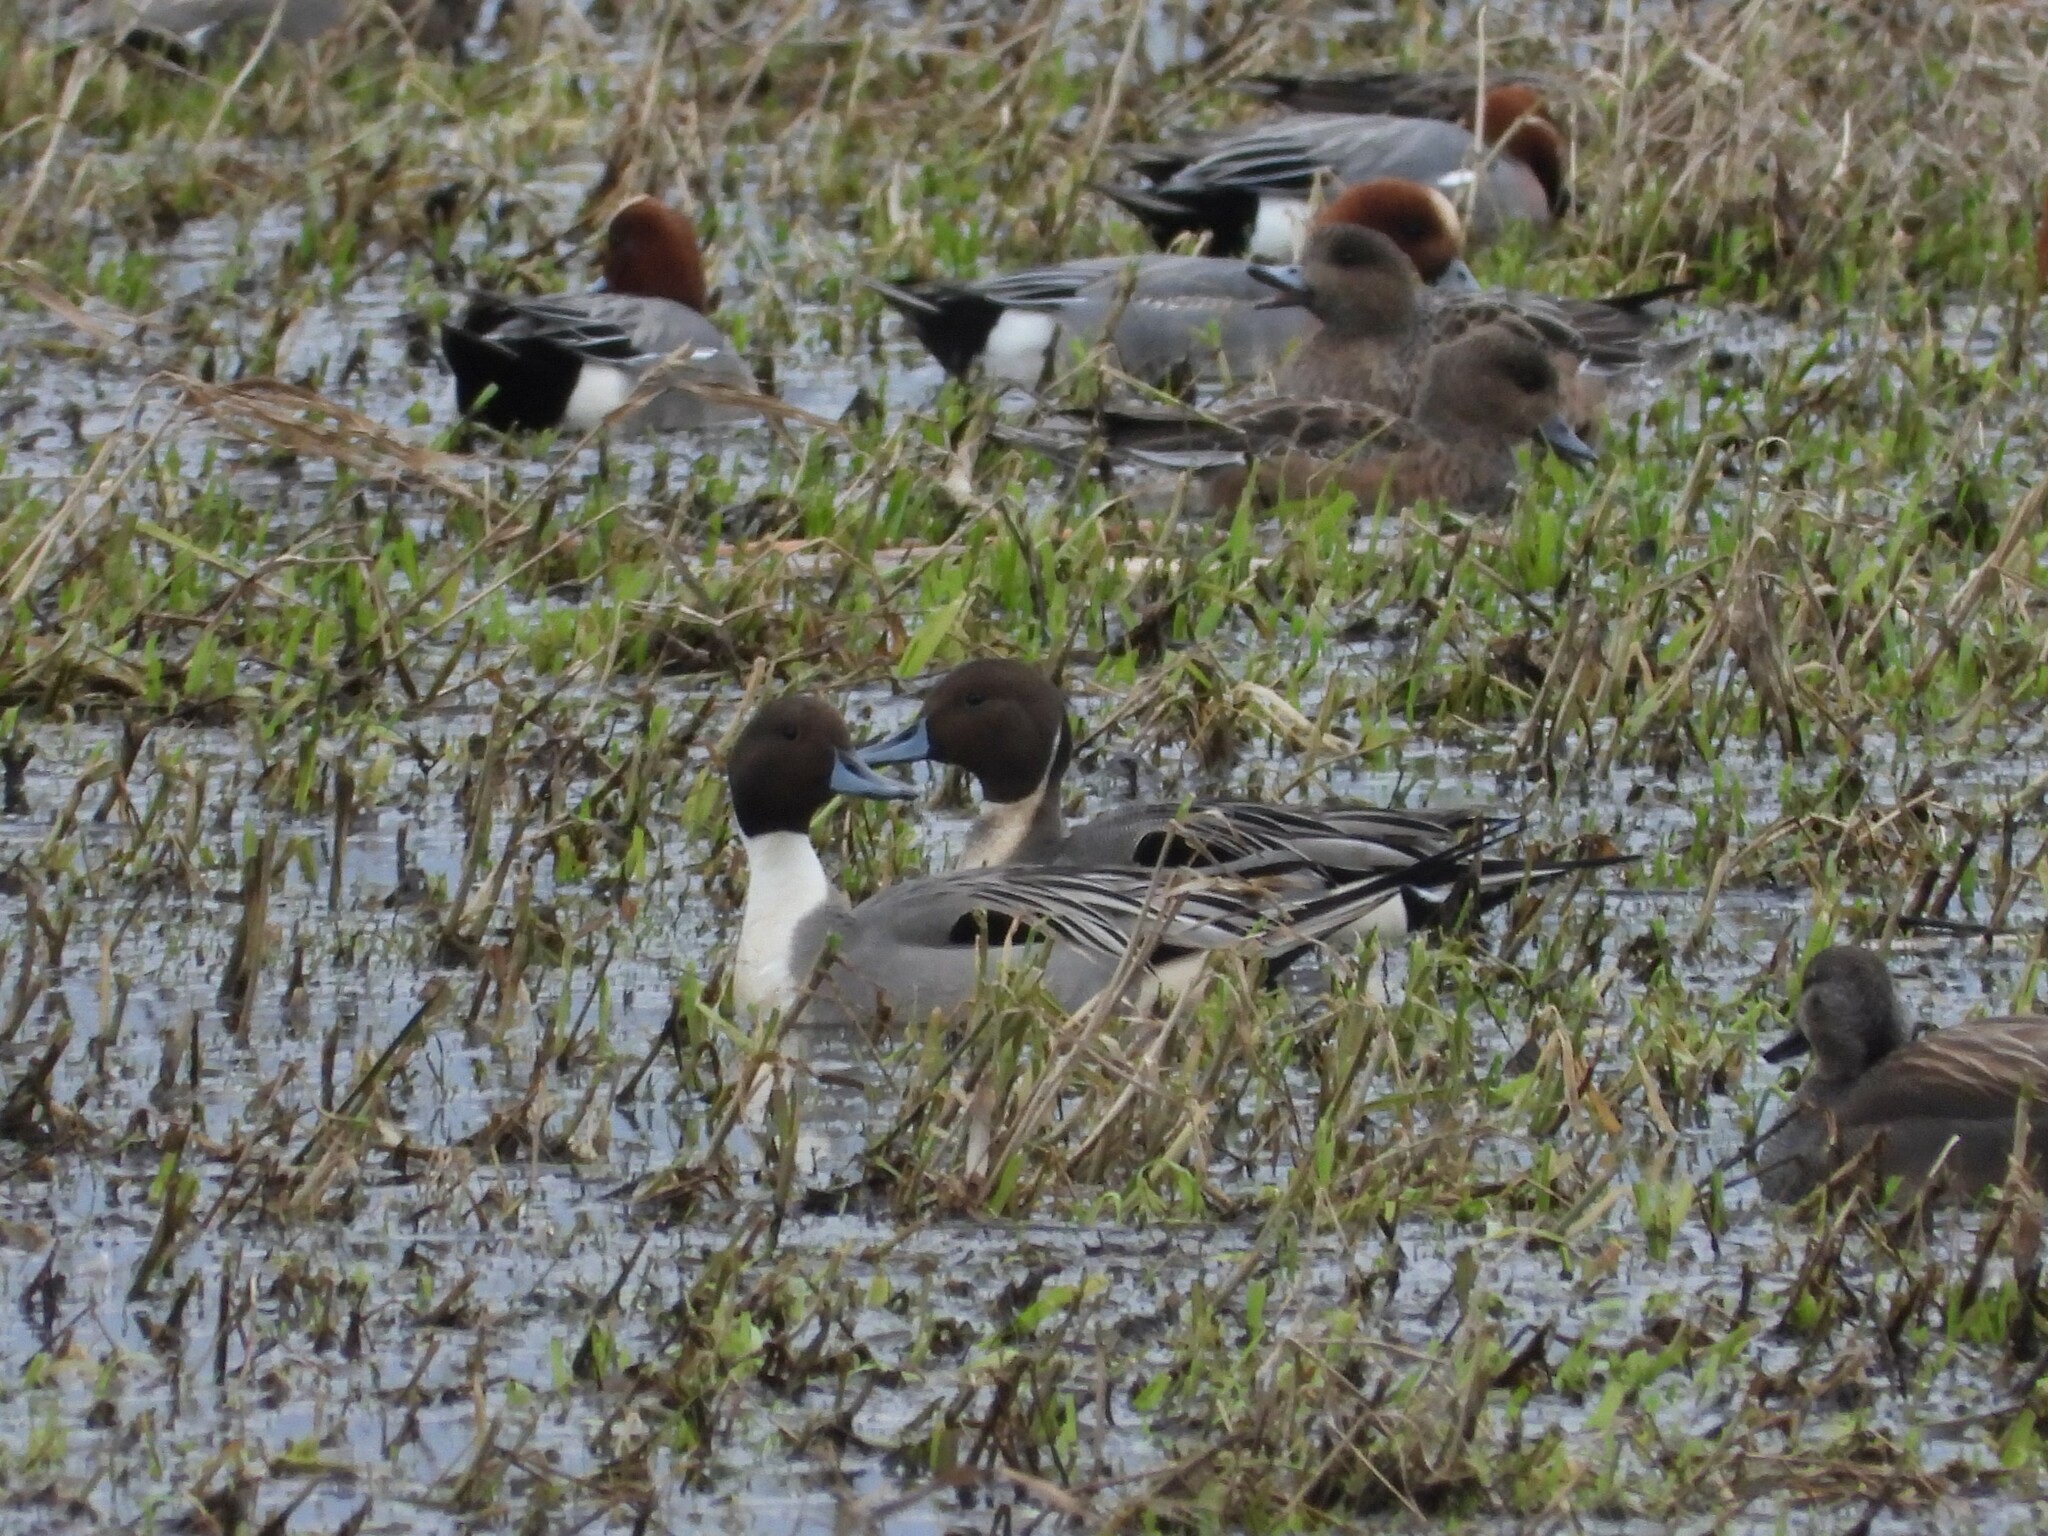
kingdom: Animalia
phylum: Chordata
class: Aves
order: Anseriformes
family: Anatidae
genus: Anas
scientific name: Anas acuta
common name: Northern pintail
